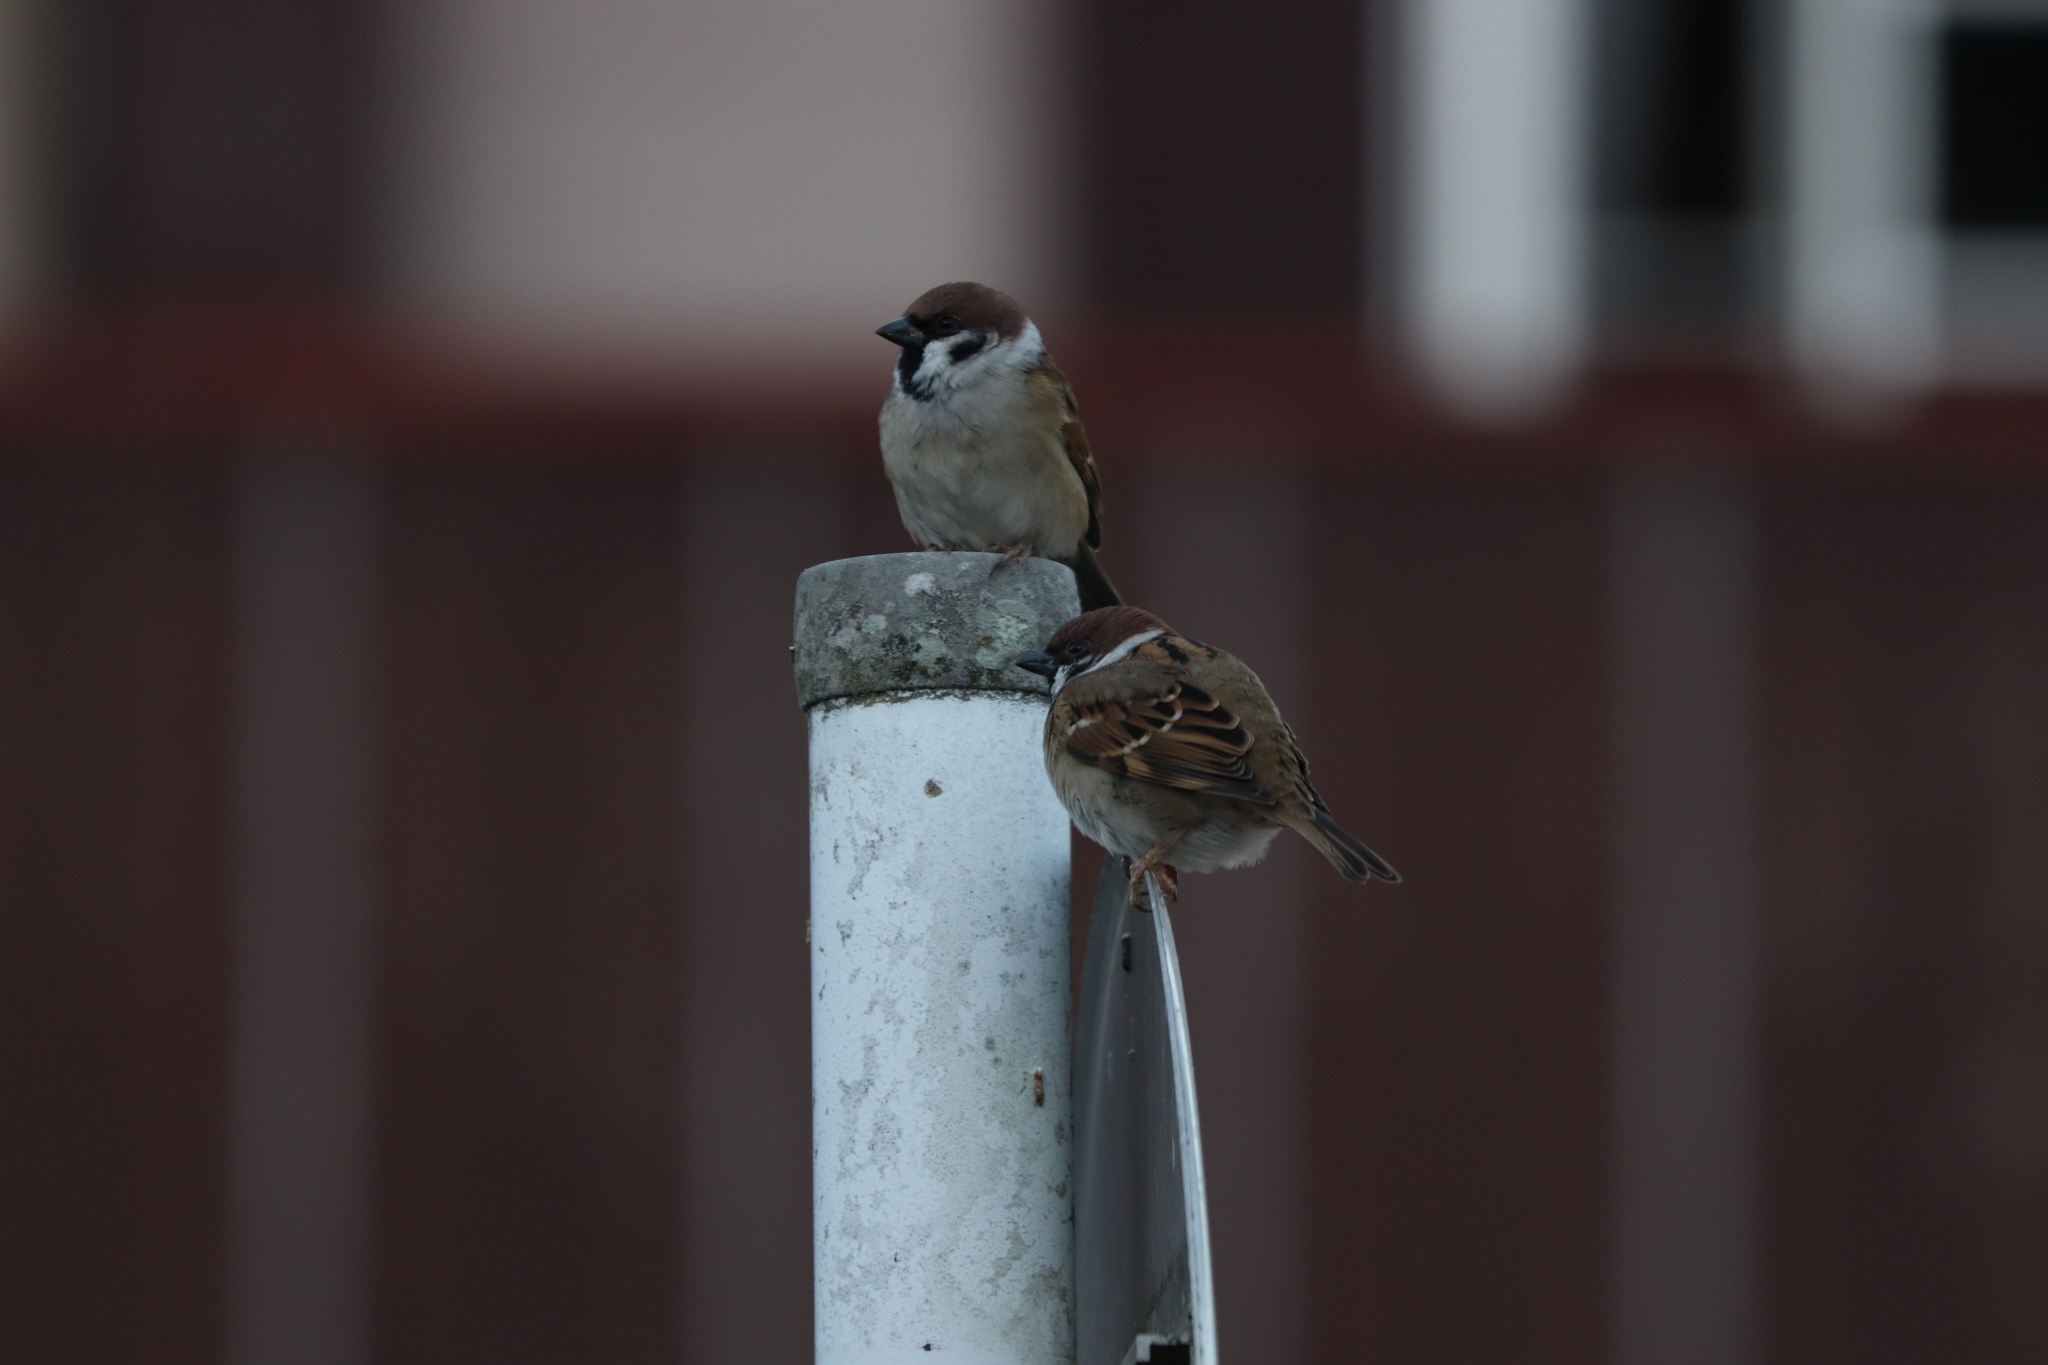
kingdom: Animalia
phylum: Chordata
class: Aves
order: Passeriformes
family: Passeridae
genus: Passer
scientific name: Passer montanus
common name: Eurasian tree sparrow
